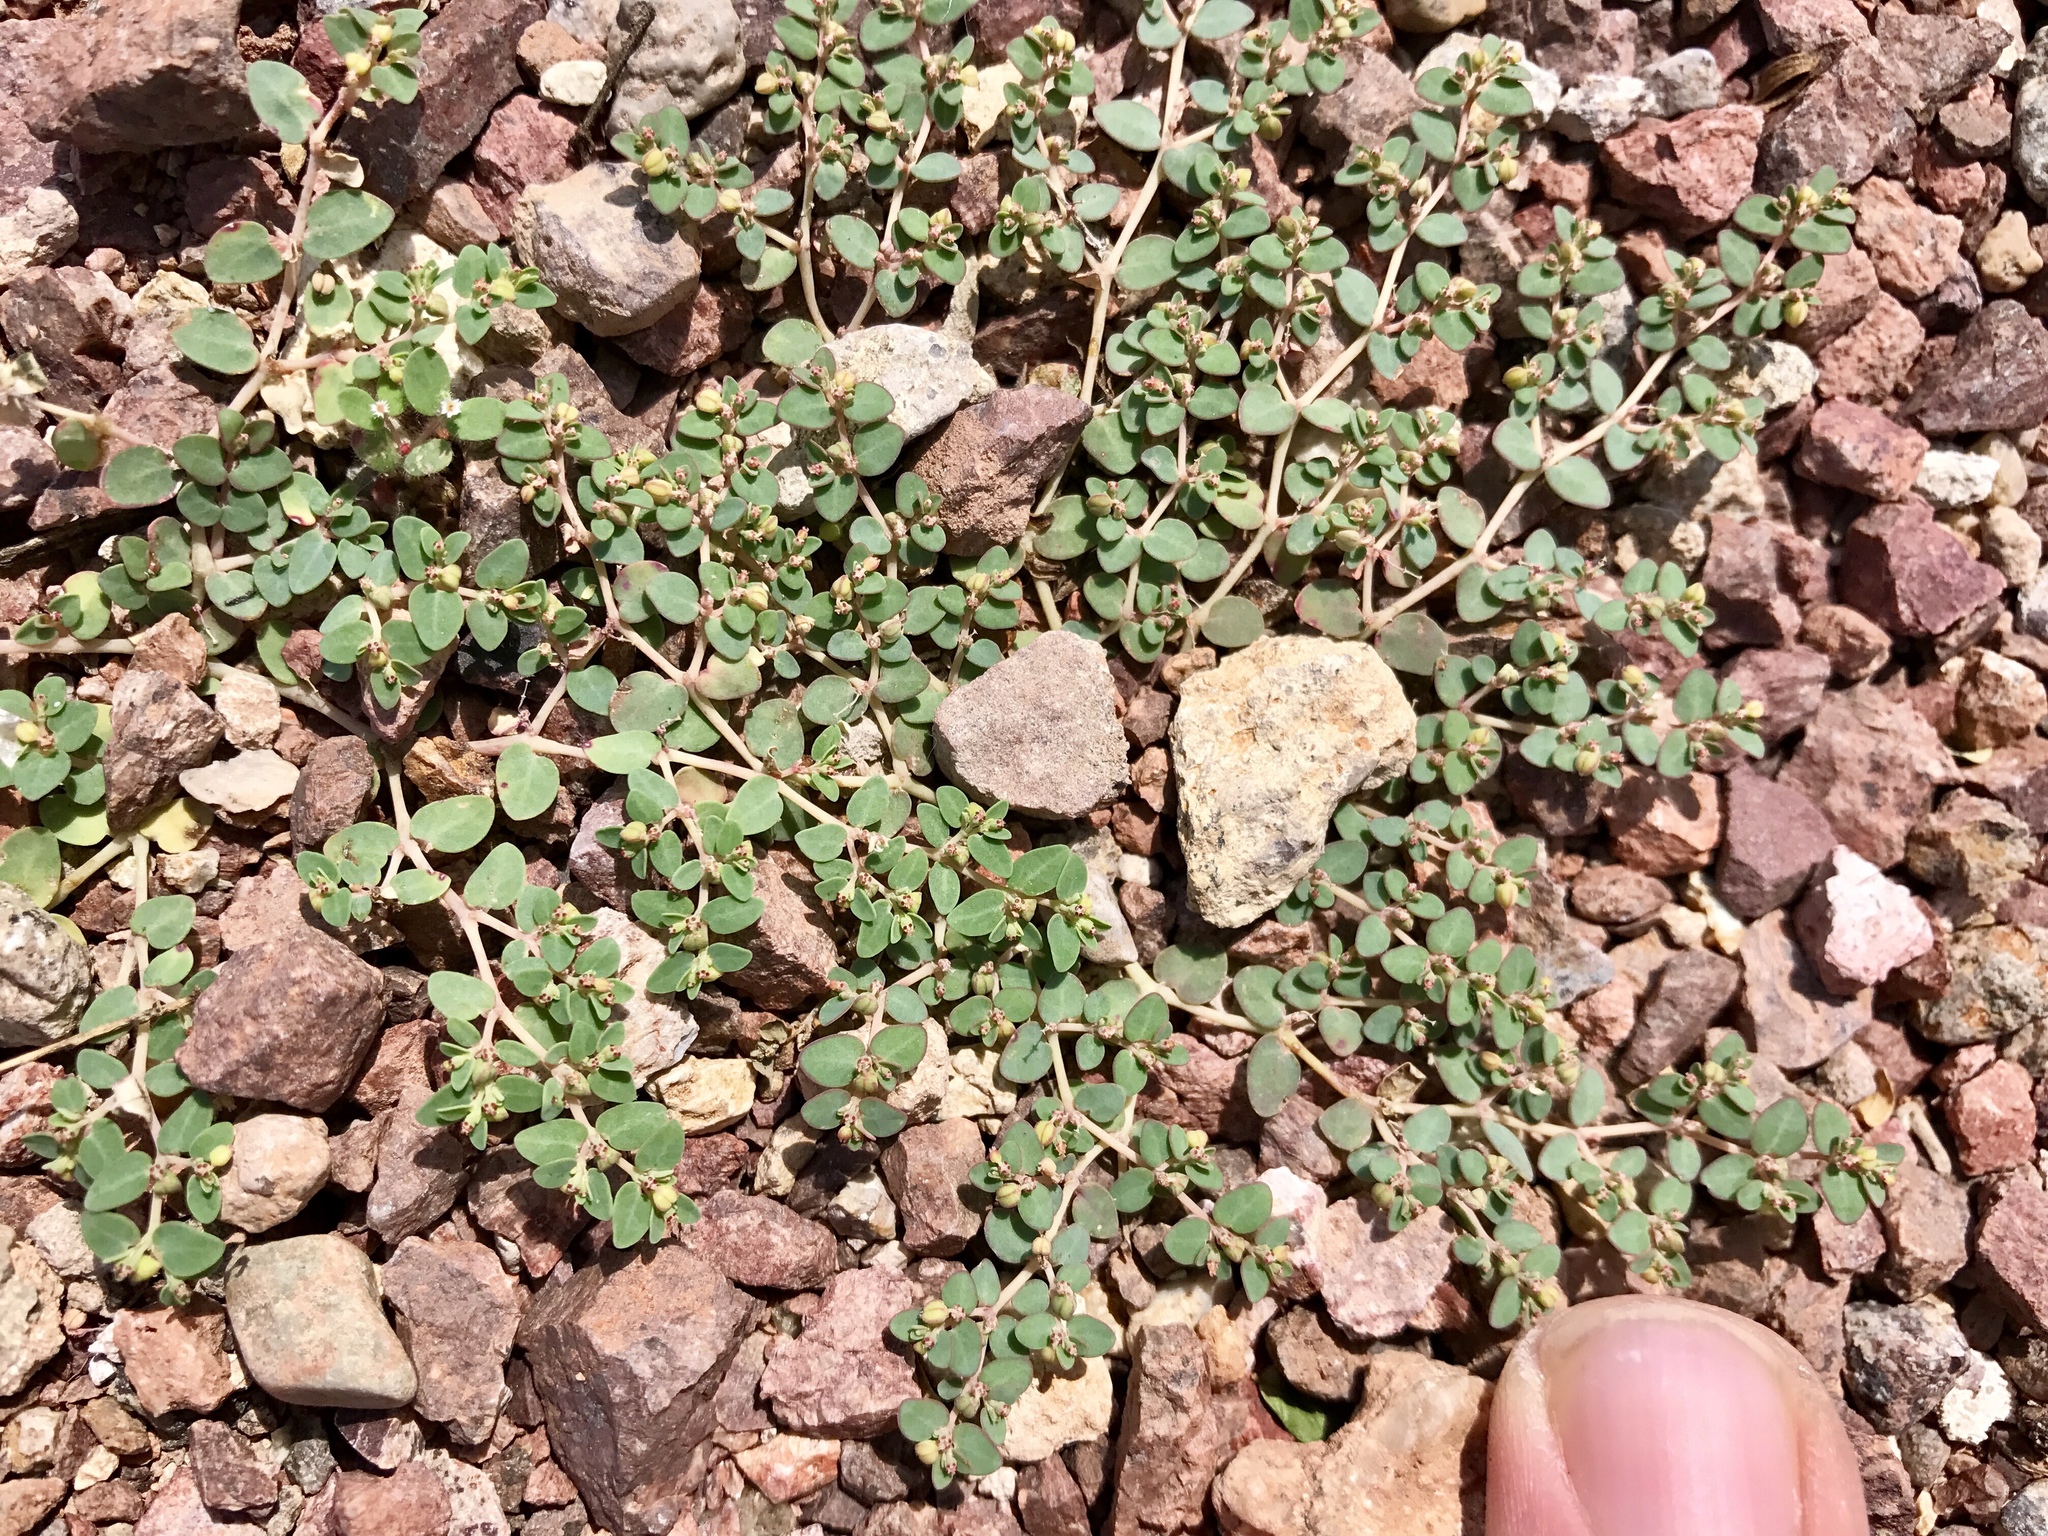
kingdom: Plantae
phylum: Tracheophyta
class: Magnoliopsida
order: Malpighiales
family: Euphorbiaceae
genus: Euphorbia
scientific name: Euphorbia micromera
